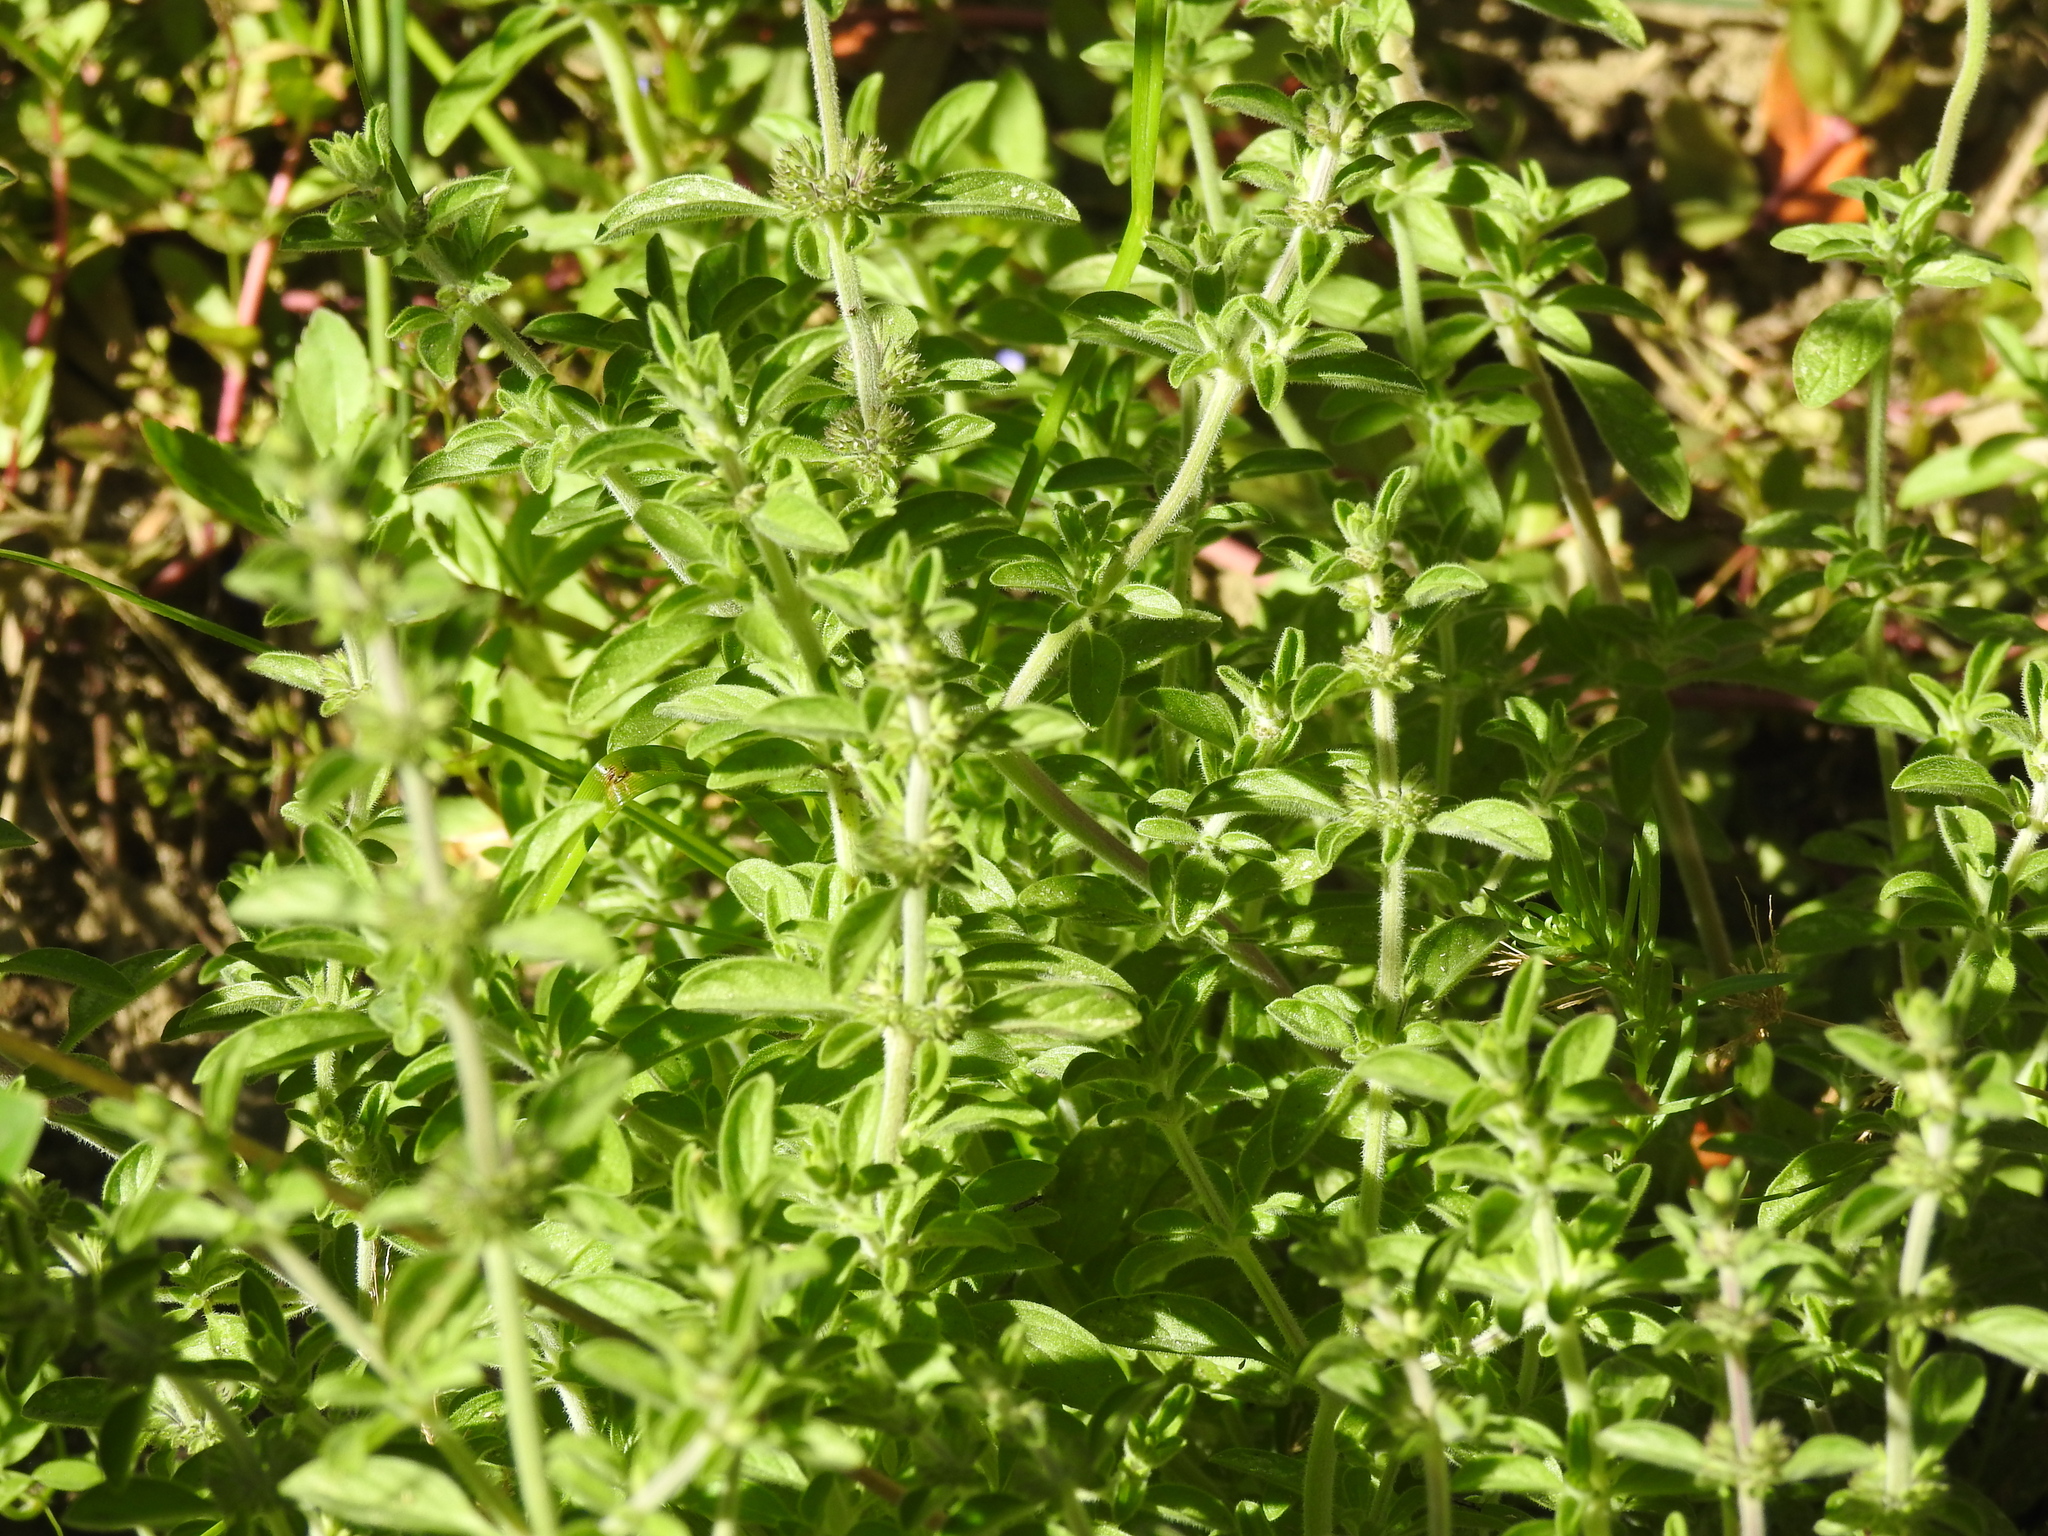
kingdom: Plantae
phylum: Tracheophyta
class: Magnoliopsida
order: Lamiales
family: Lamiaceae
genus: Mentha
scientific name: Mentha pulegium
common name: Pennyroyal
